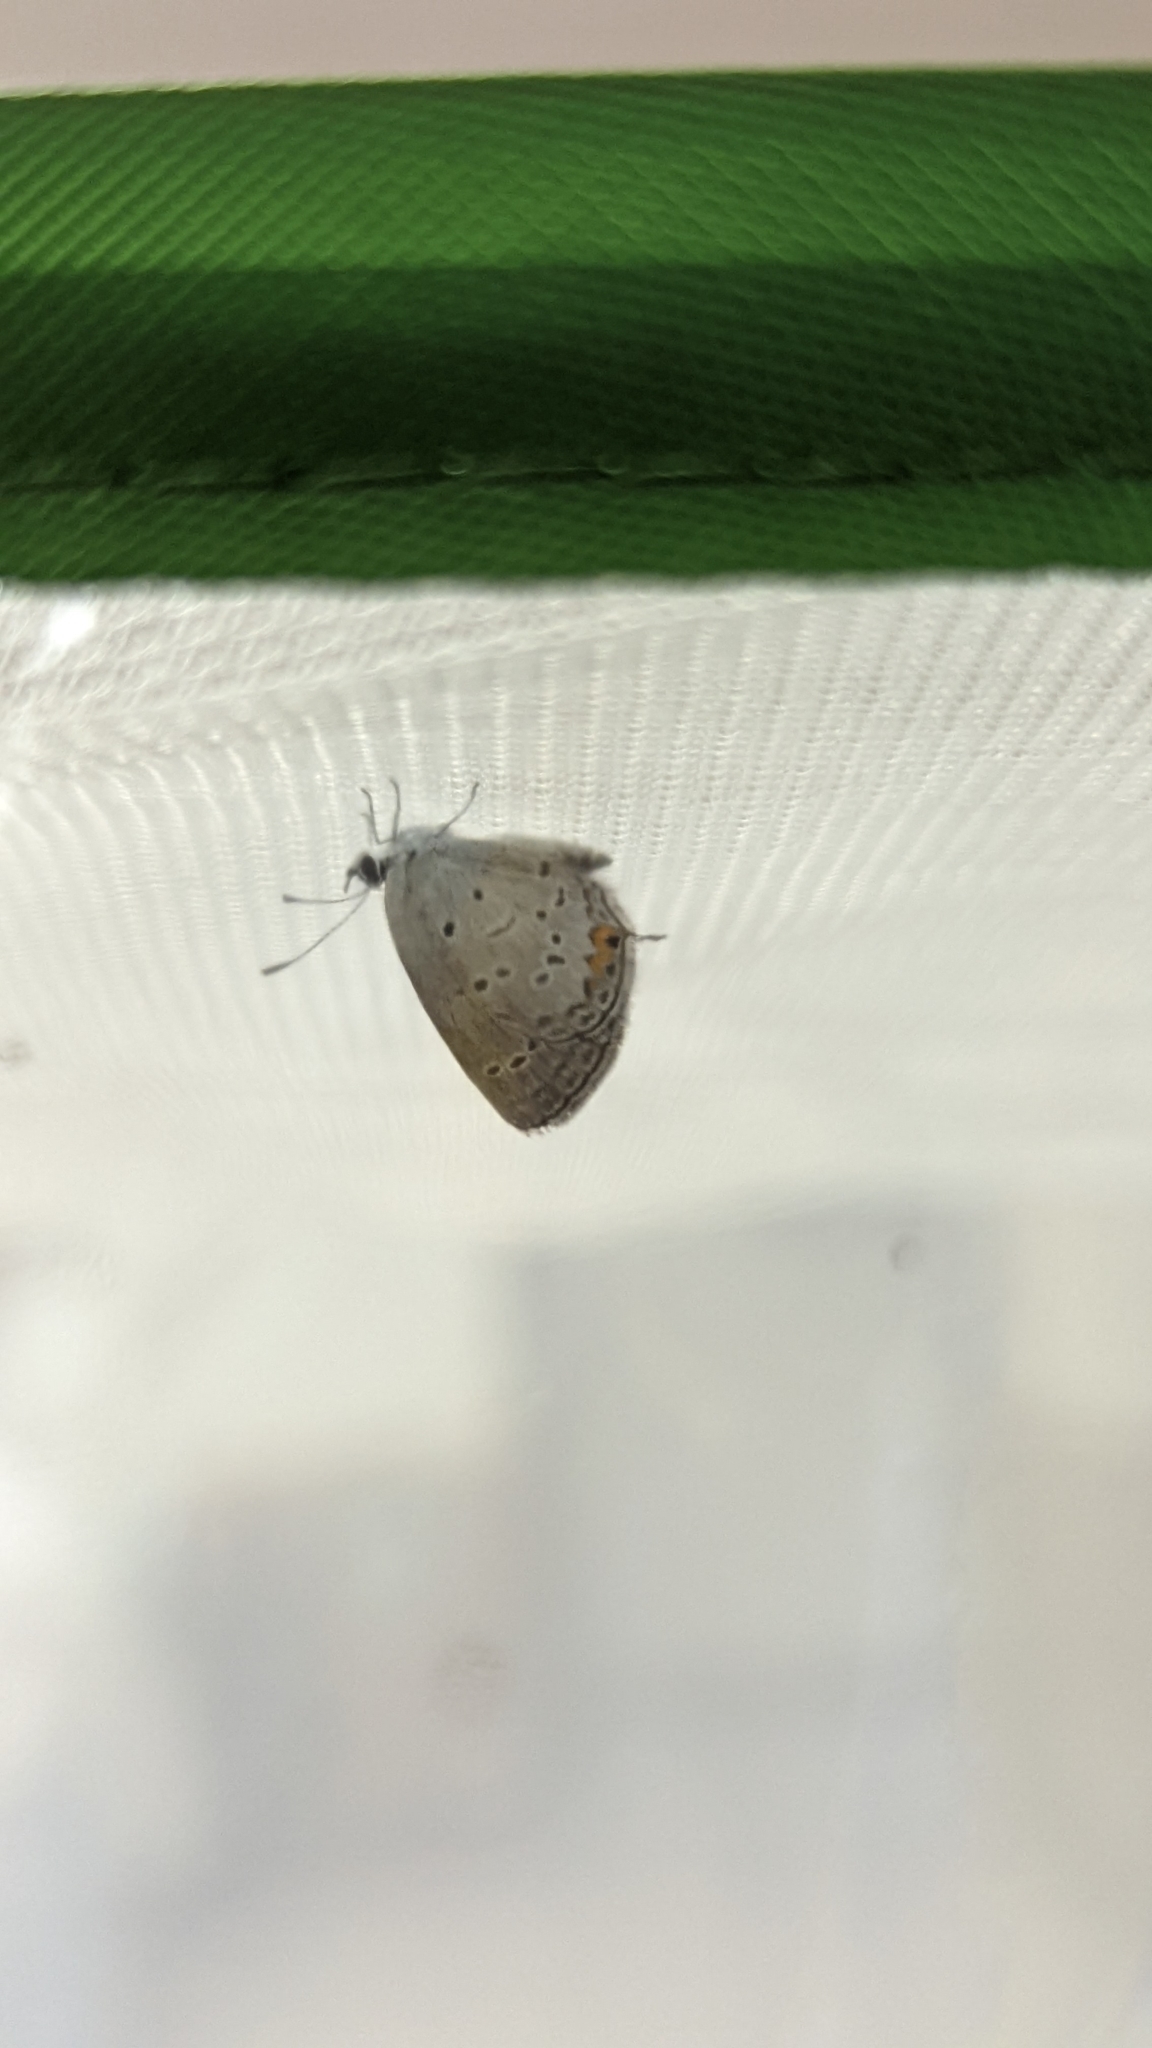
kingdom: Animalia
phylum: Arthropoda
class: Insecta
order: Lepidoptera
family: Lycaenidae
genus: Elkalyce
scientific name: Elkalyce comyntas
